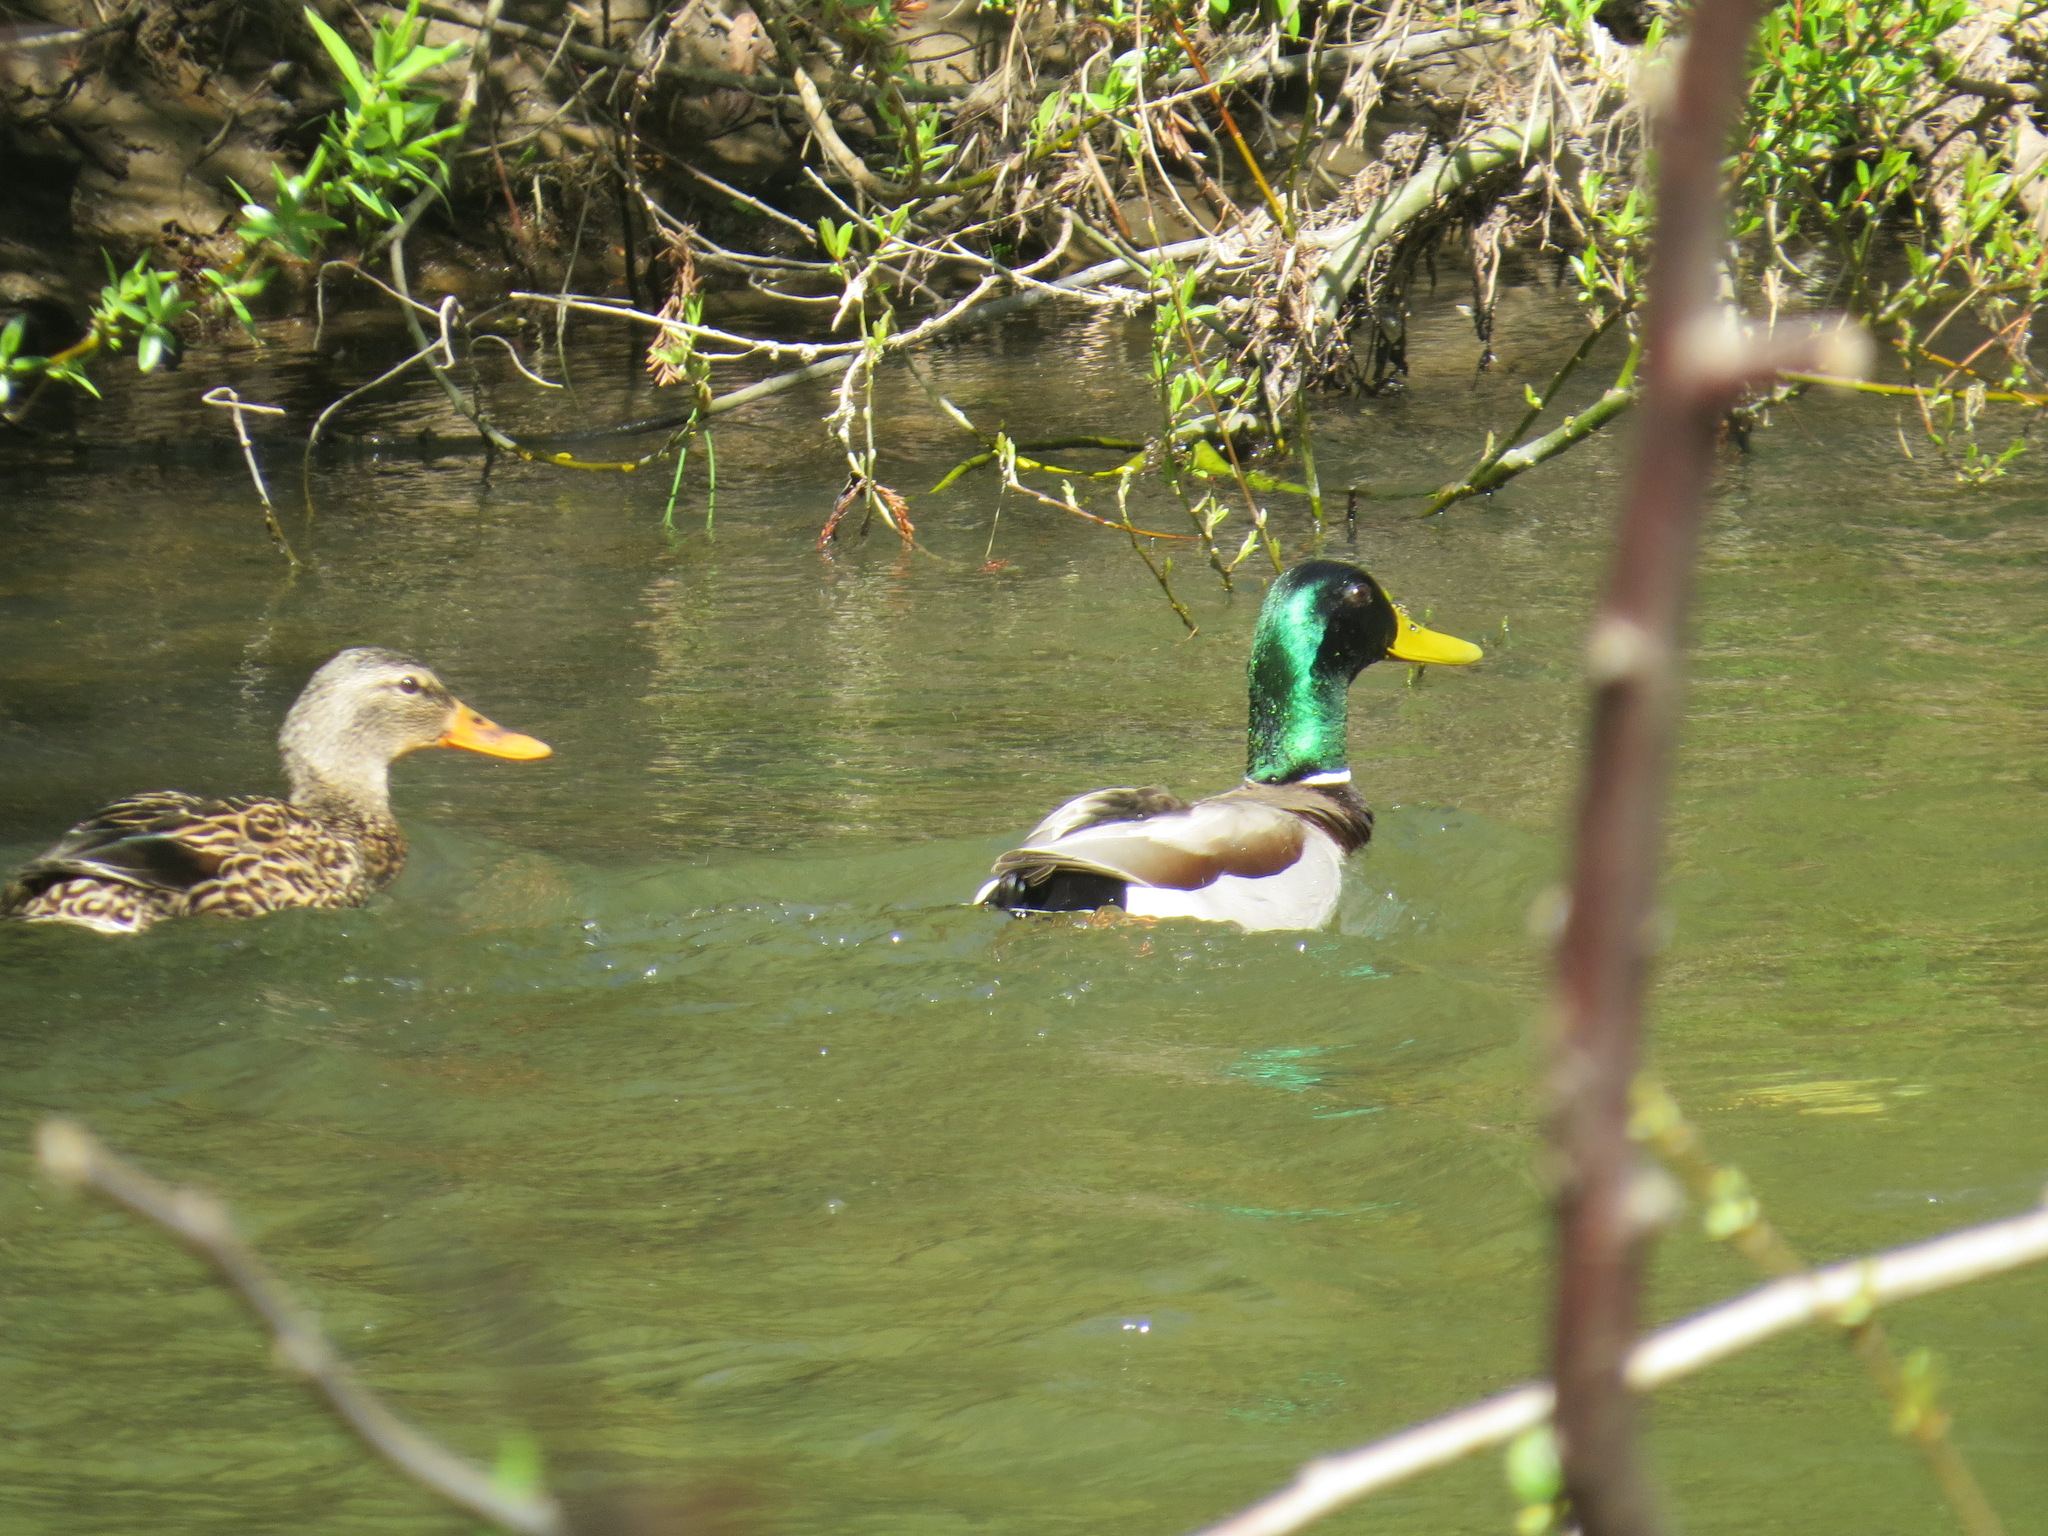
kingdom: Animalia
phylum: Chordata
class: Aves
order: Anseriformes
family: Anatidae
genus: Anas
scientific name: Anas platyrhynchos
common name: Mallard
